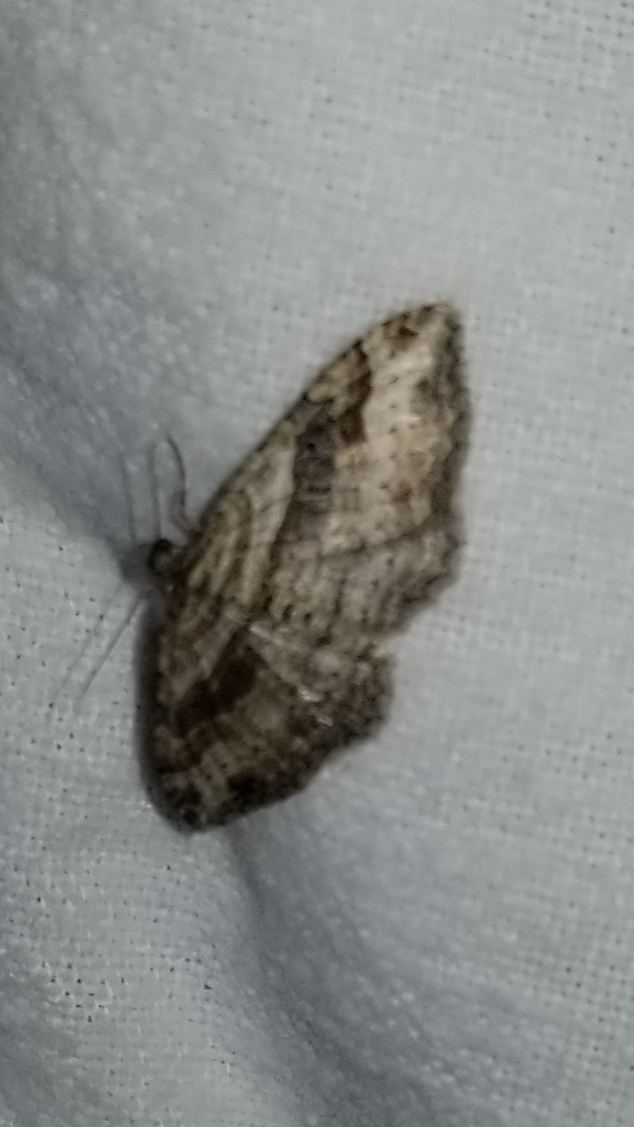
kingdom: Animalia
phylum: Arthropoda
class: Insecta
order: Lepidoptera
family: Geometridae
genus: Costaconvexa
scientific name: Costaconvexa centrostrigaria
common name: Bent-line carpet
